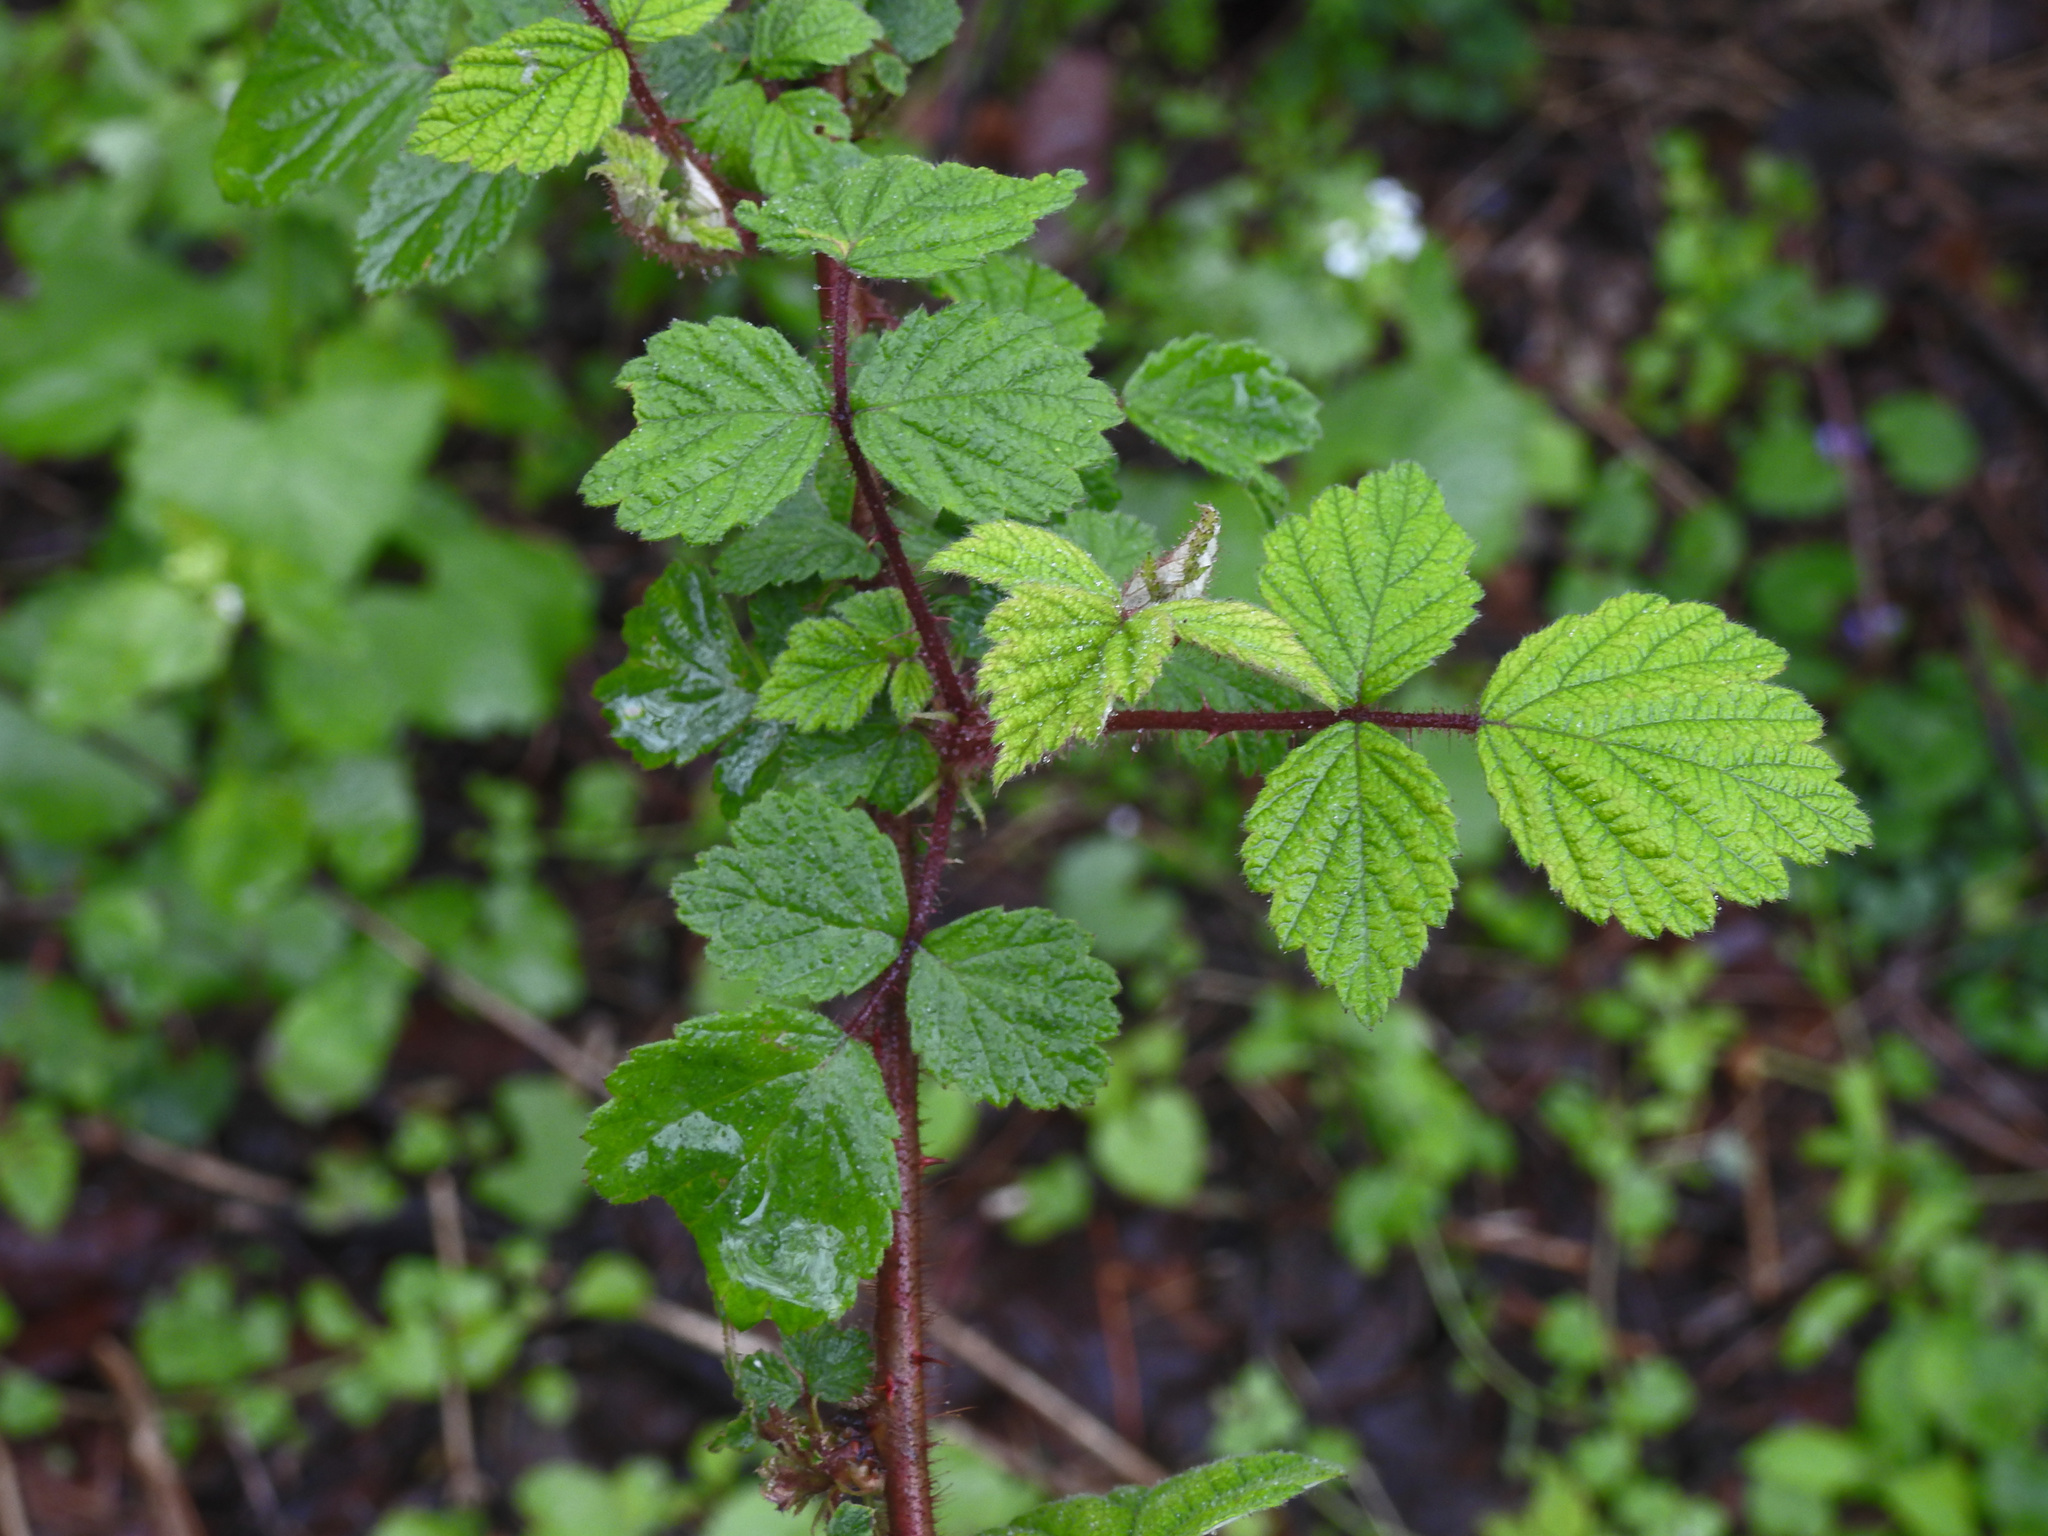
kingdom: Plantae
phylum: Tracheophyta
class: Magnoliopsida
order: Rosales
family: Rosaceae
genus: Rubus
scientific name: Rubus phoenicolasius
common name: Japanese wineberry
